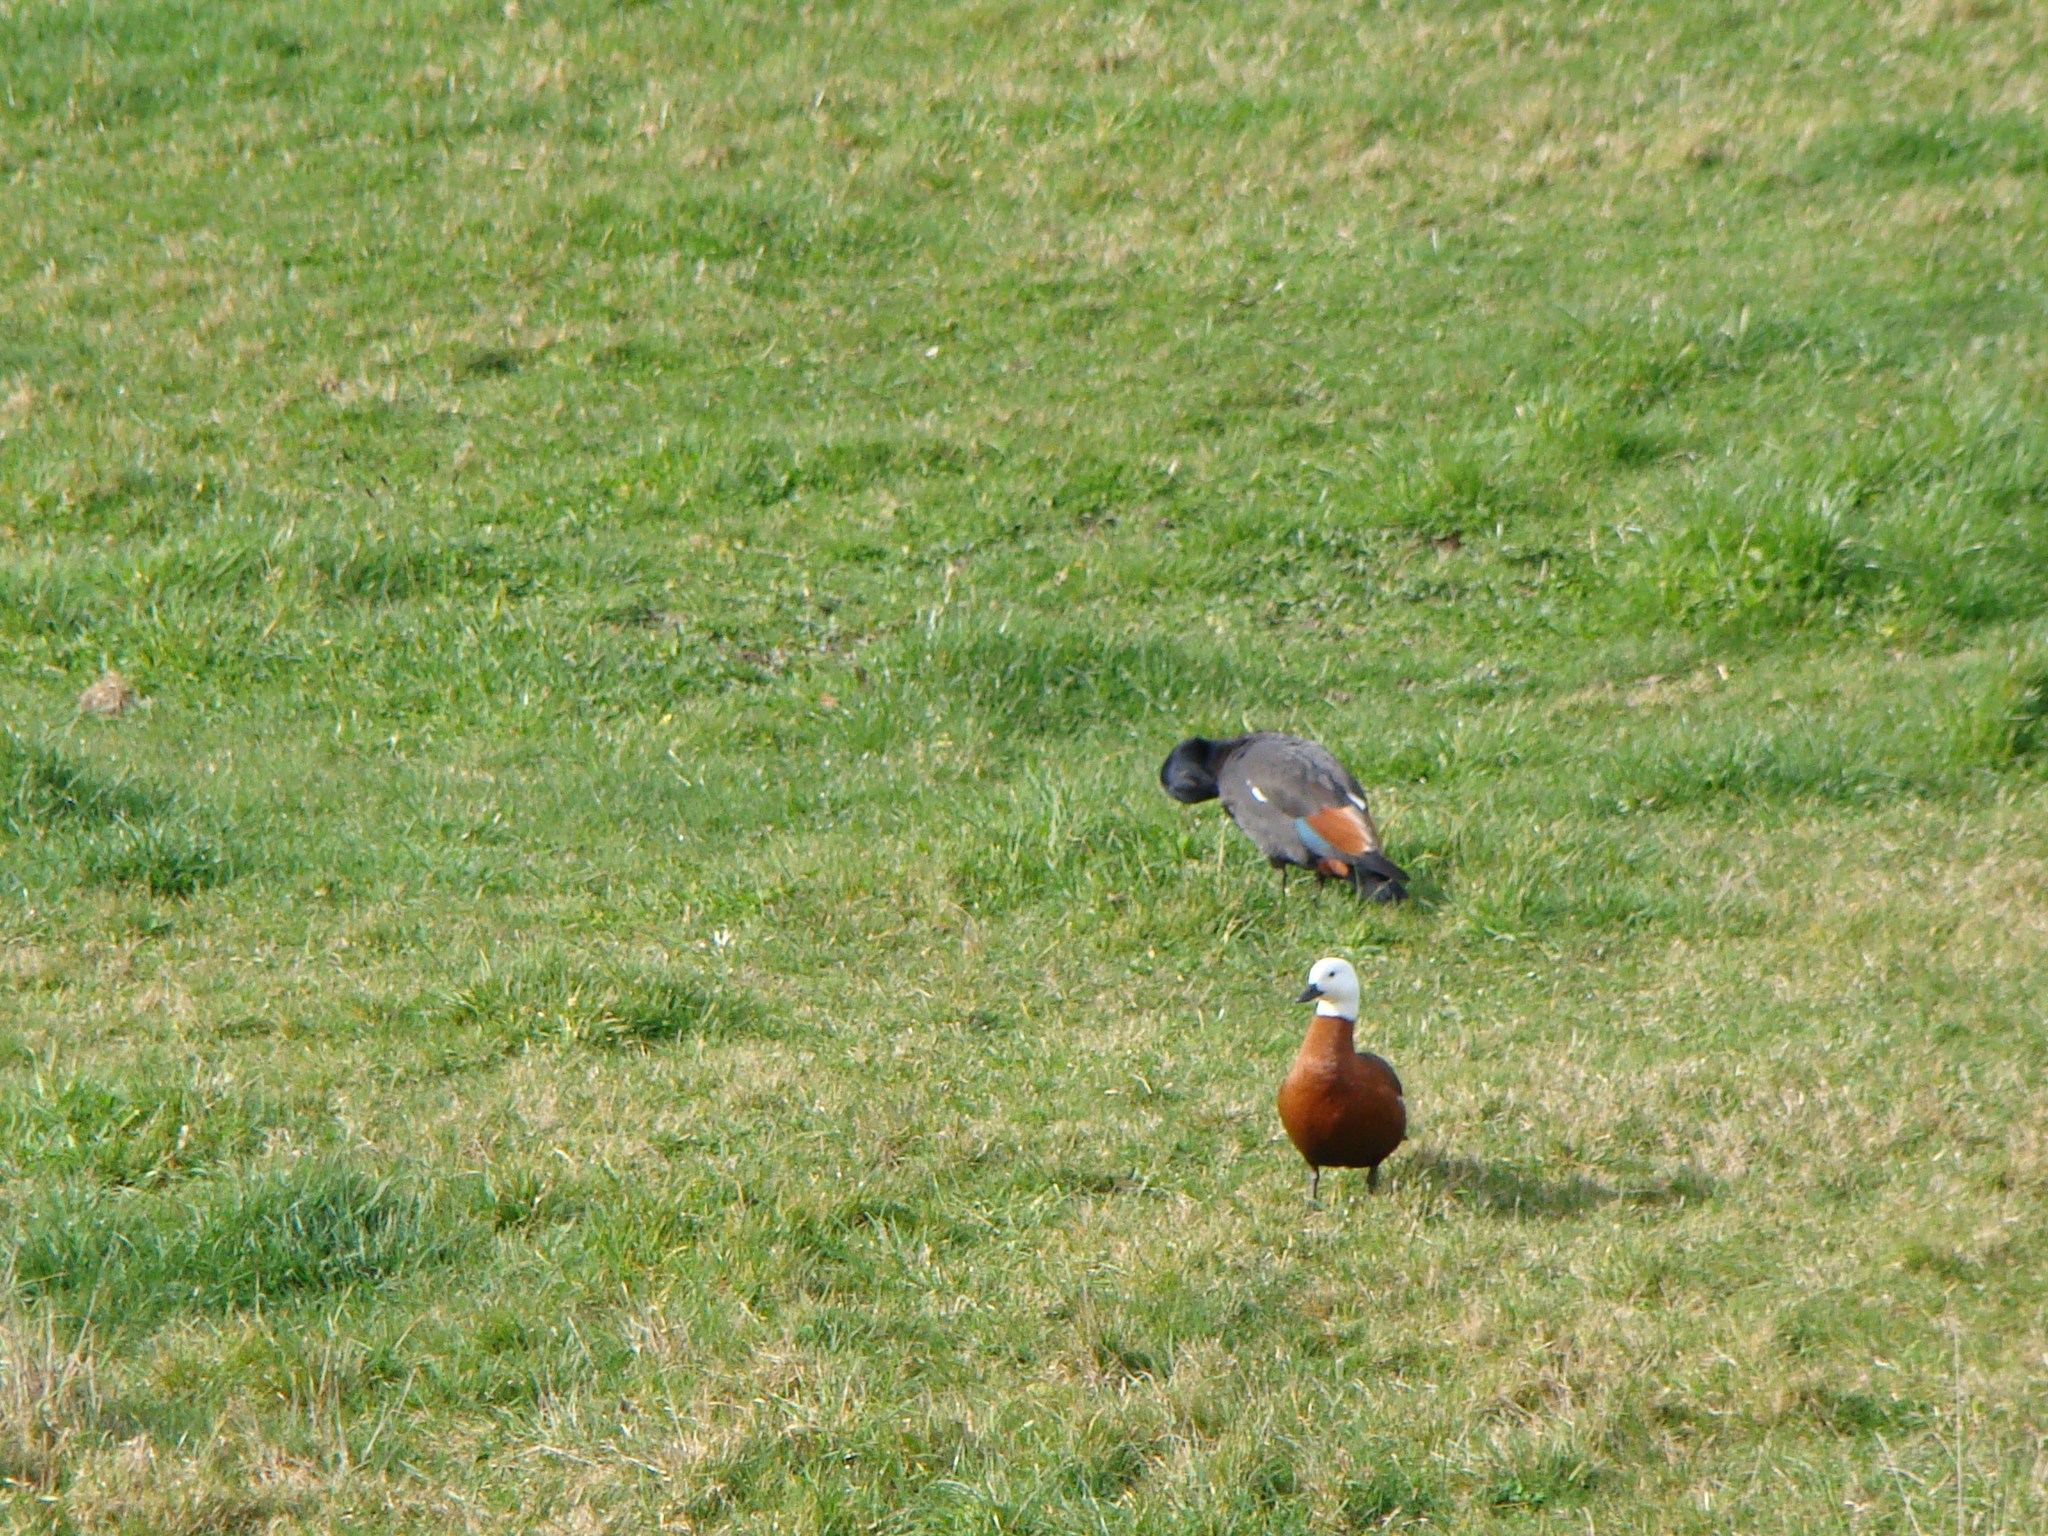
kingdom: Animalia
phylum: Chordata
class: Aves
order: Anseriformes
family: Anatidae
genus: Tadorna
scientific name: Tadorna variegata
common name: Paradise shelduck
